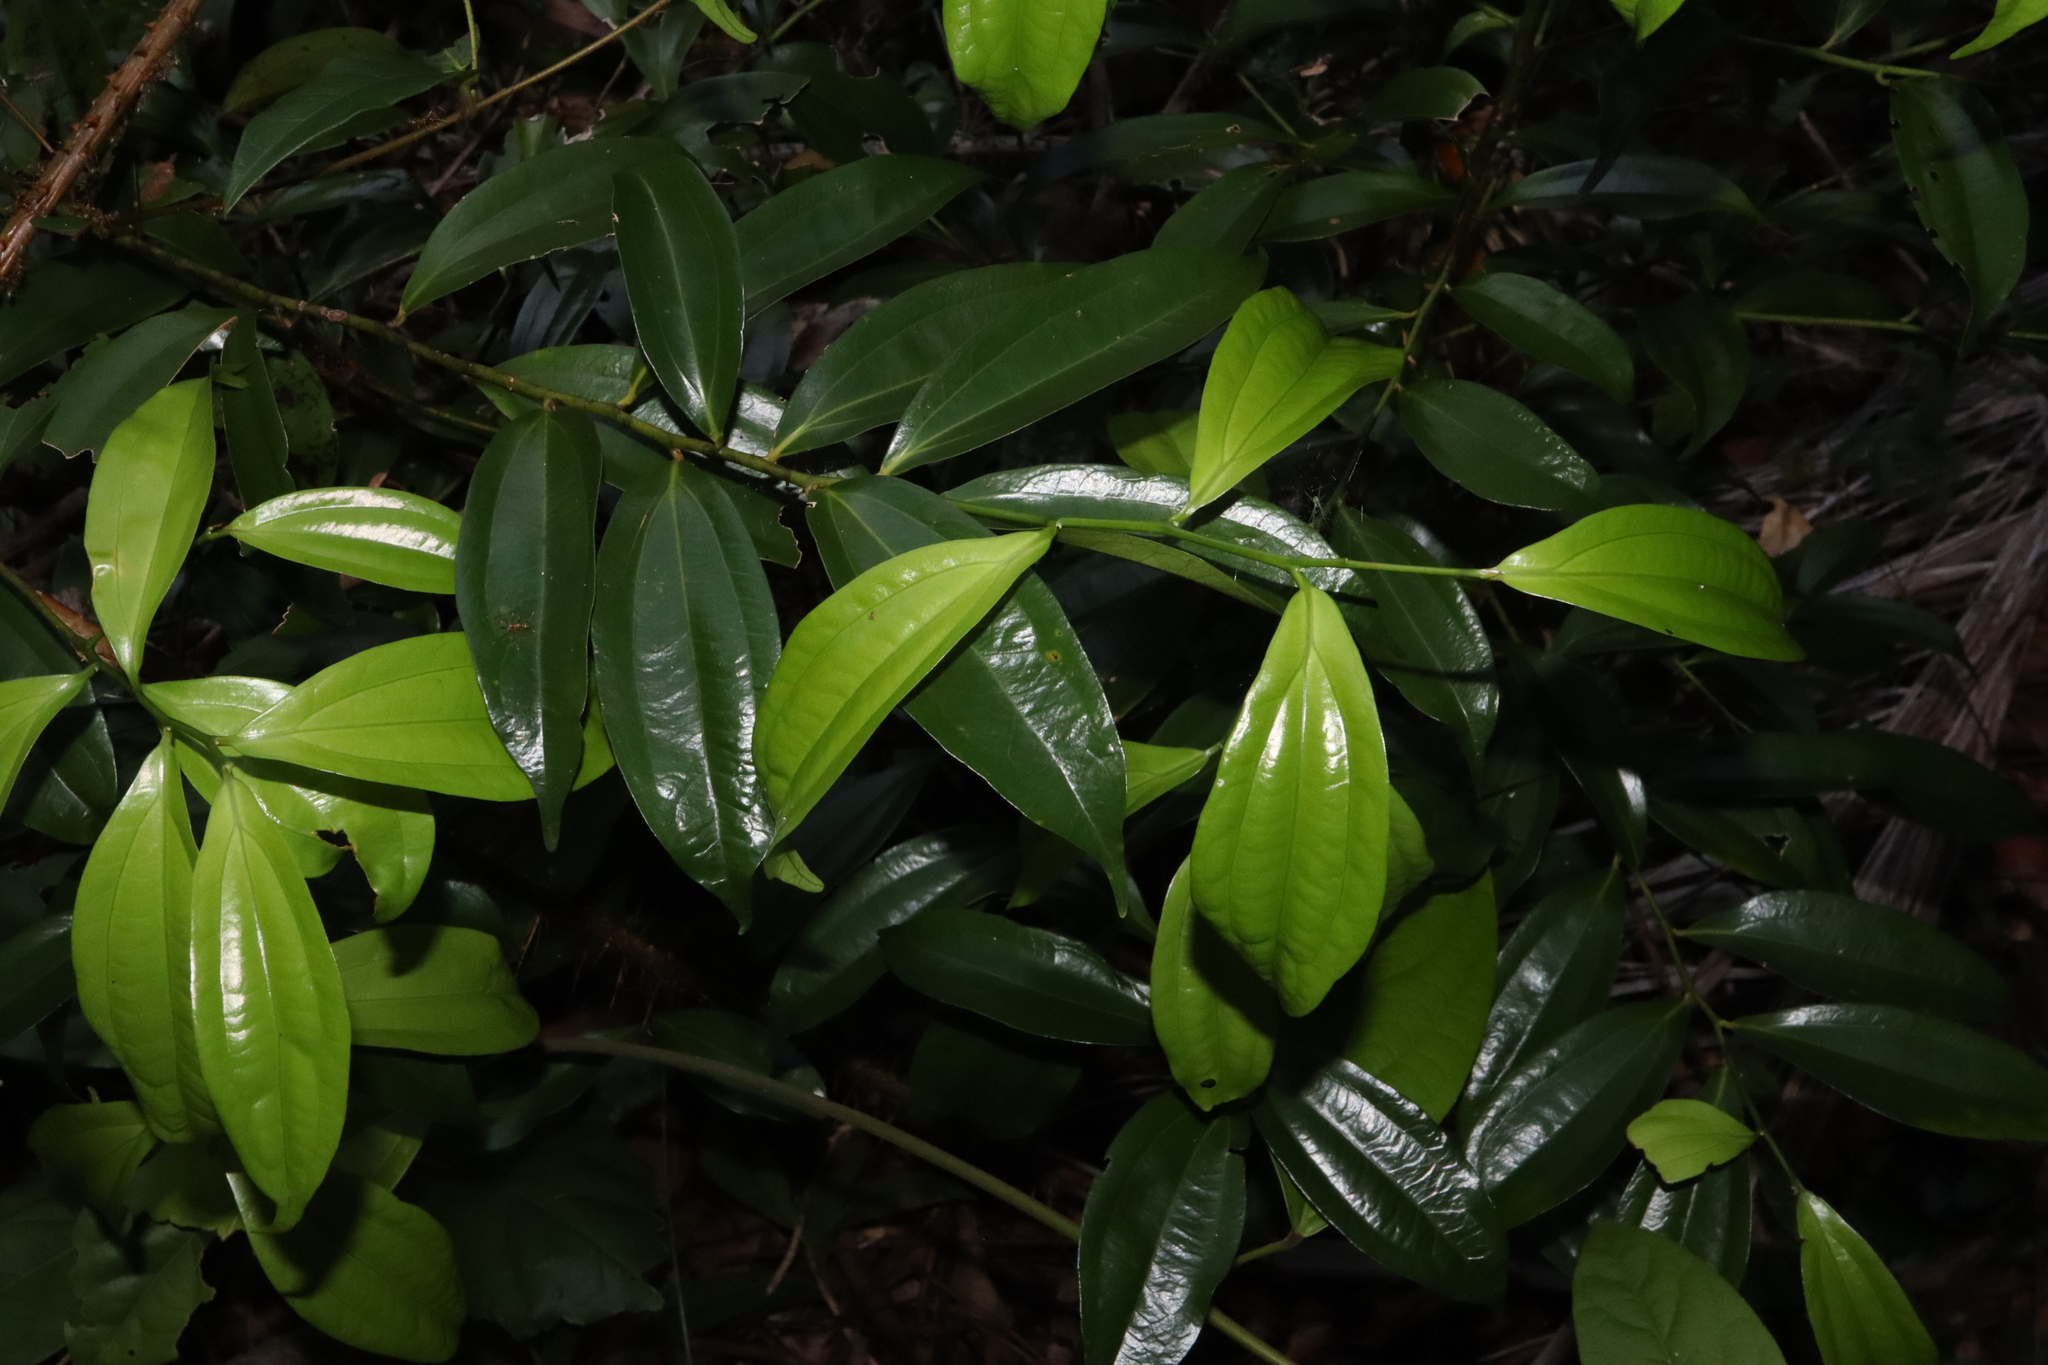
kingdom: Plantae
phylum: Tracheophyta
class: Magnoliopsida
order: Laurales
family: Lauraceae
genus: Cryptocarya
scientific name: Cryptocarya laevigata
